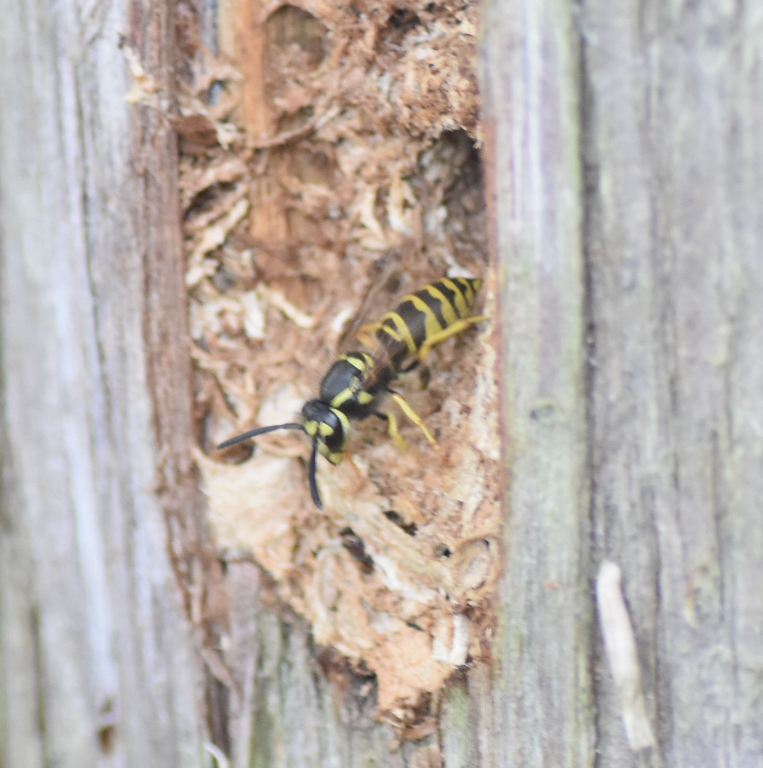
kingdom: Animalia
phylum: Arthropoda
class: Insecta
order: Hymenoptera
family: Vespidae
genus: Vespula
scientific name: Vespula maculifrons
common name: Eastern yellowjacket
